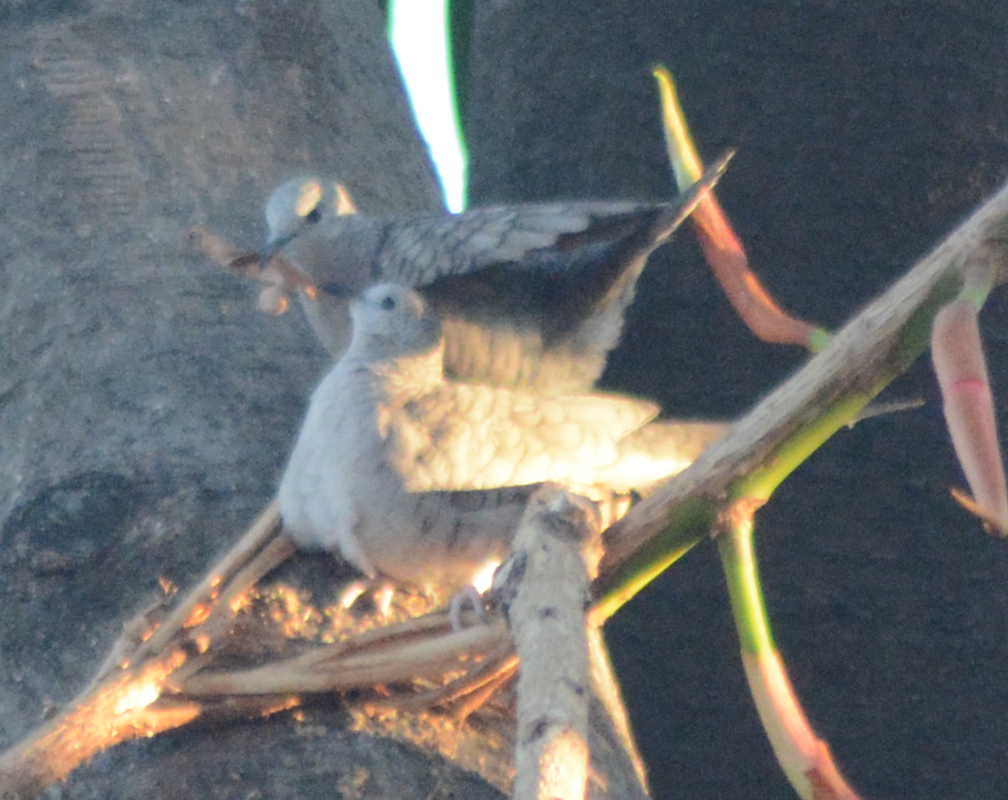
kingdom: Animalia
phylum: Chordata
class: Aves
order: Columbiformes
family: Columbidae
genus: Columbina
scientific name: Columbina inca
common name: Inca dove
